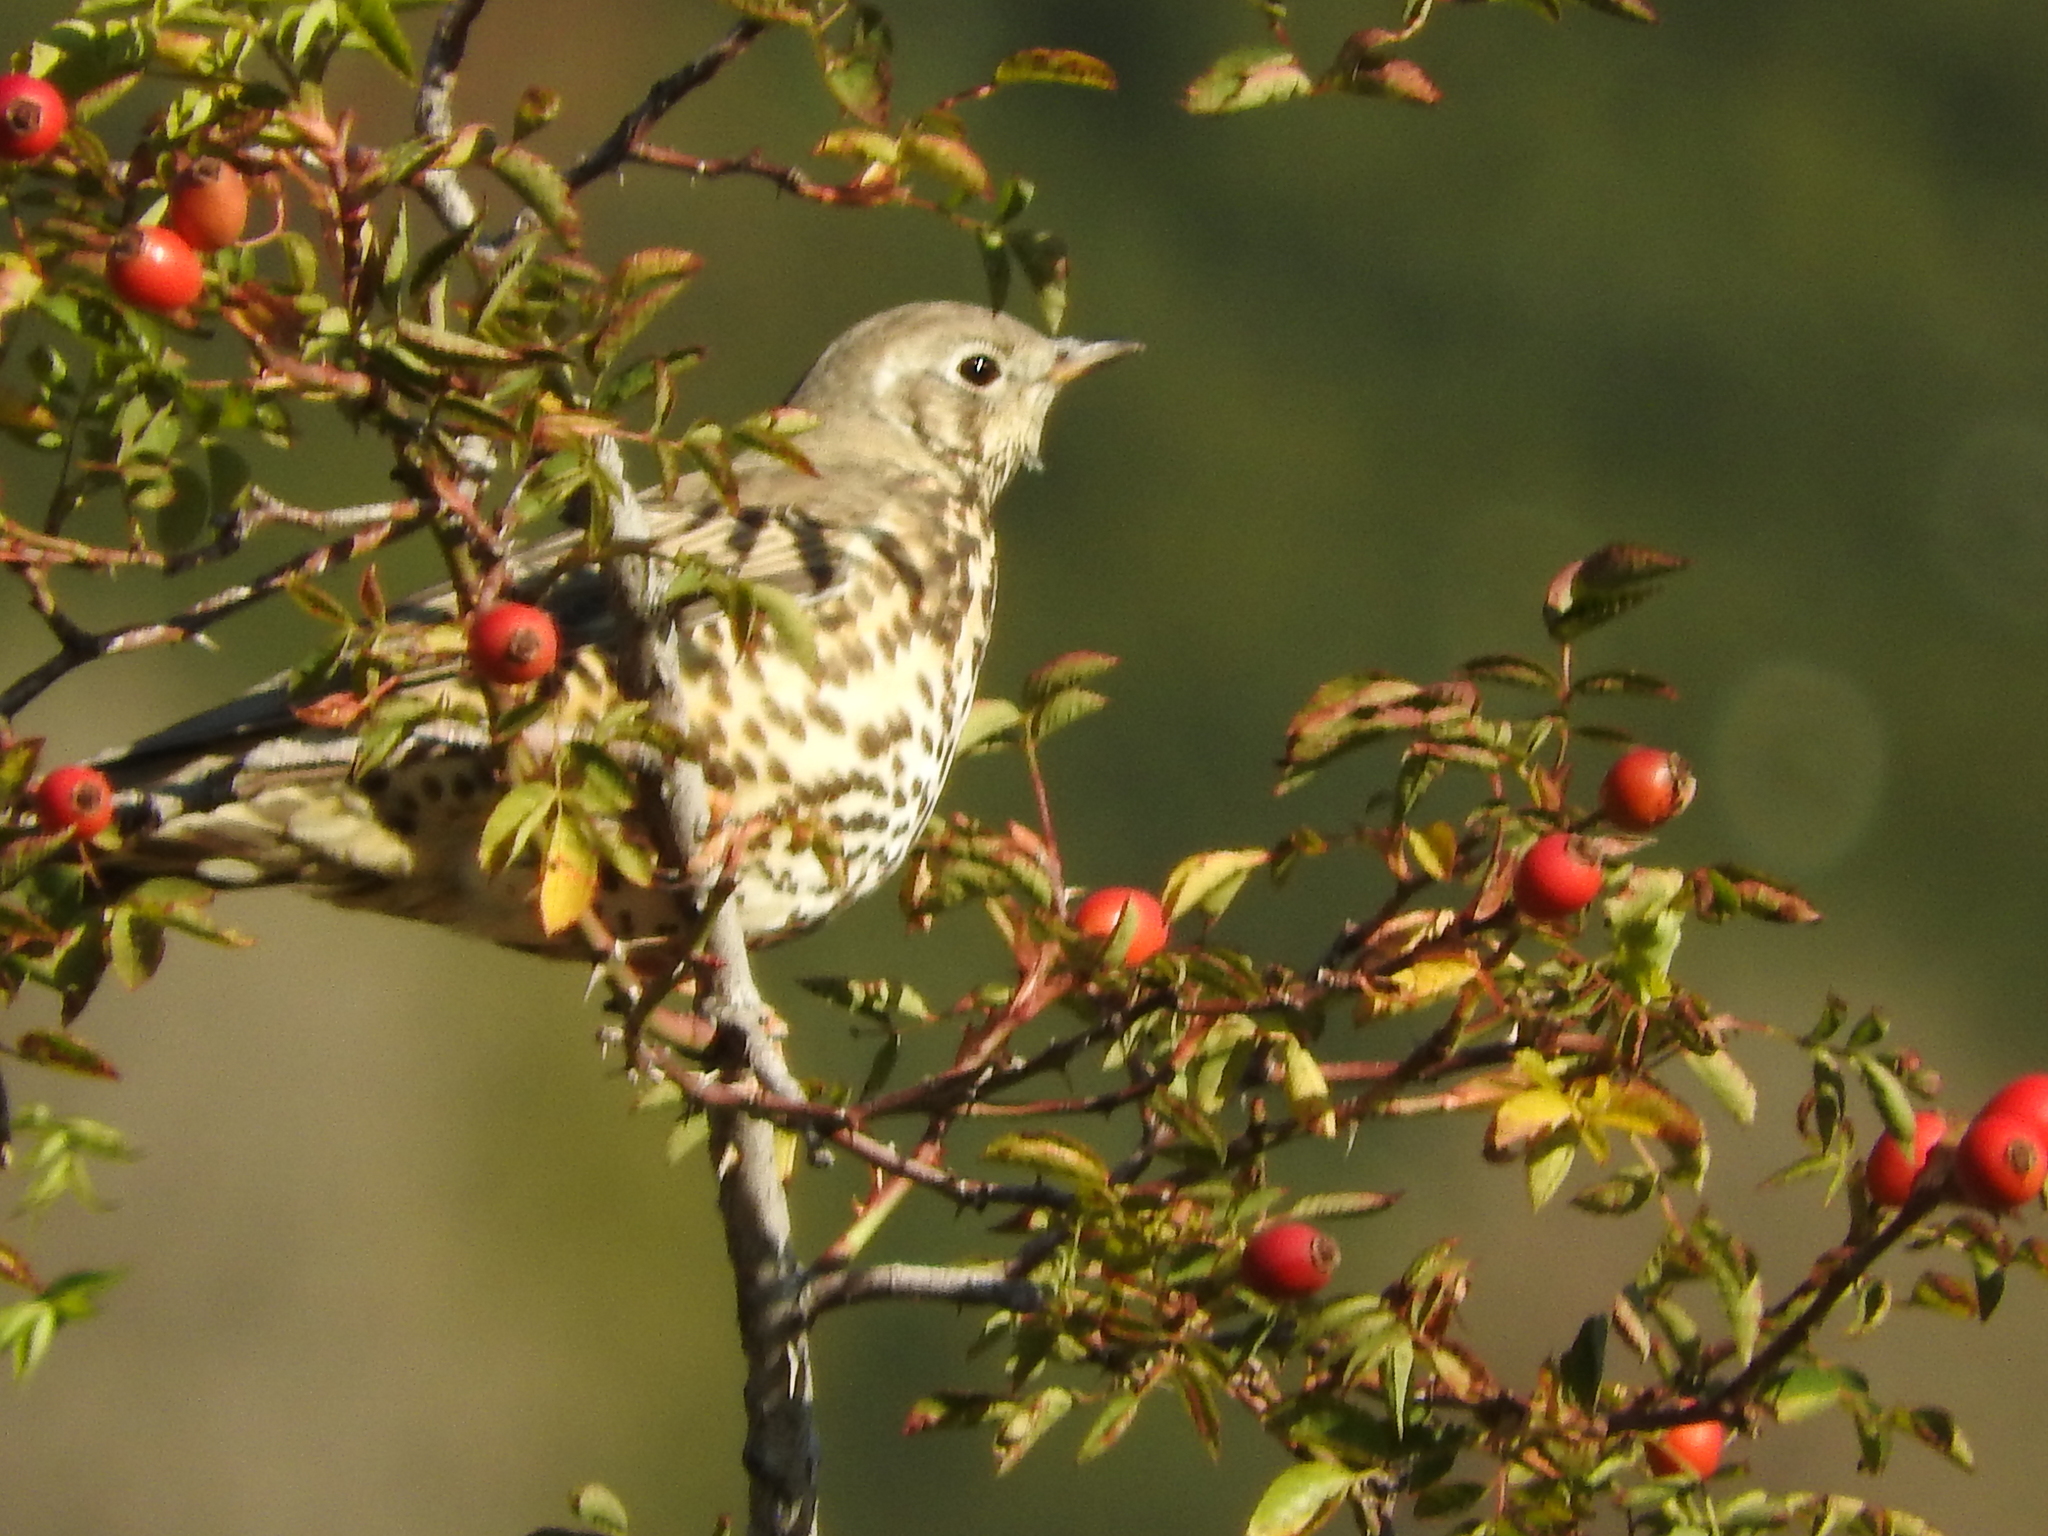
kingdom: Animalia
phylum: Chordata
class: Aves
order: Passeriformes
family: Turdidae
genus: Turdus
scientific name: Turdus viscivorus
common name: Mistle thrush
